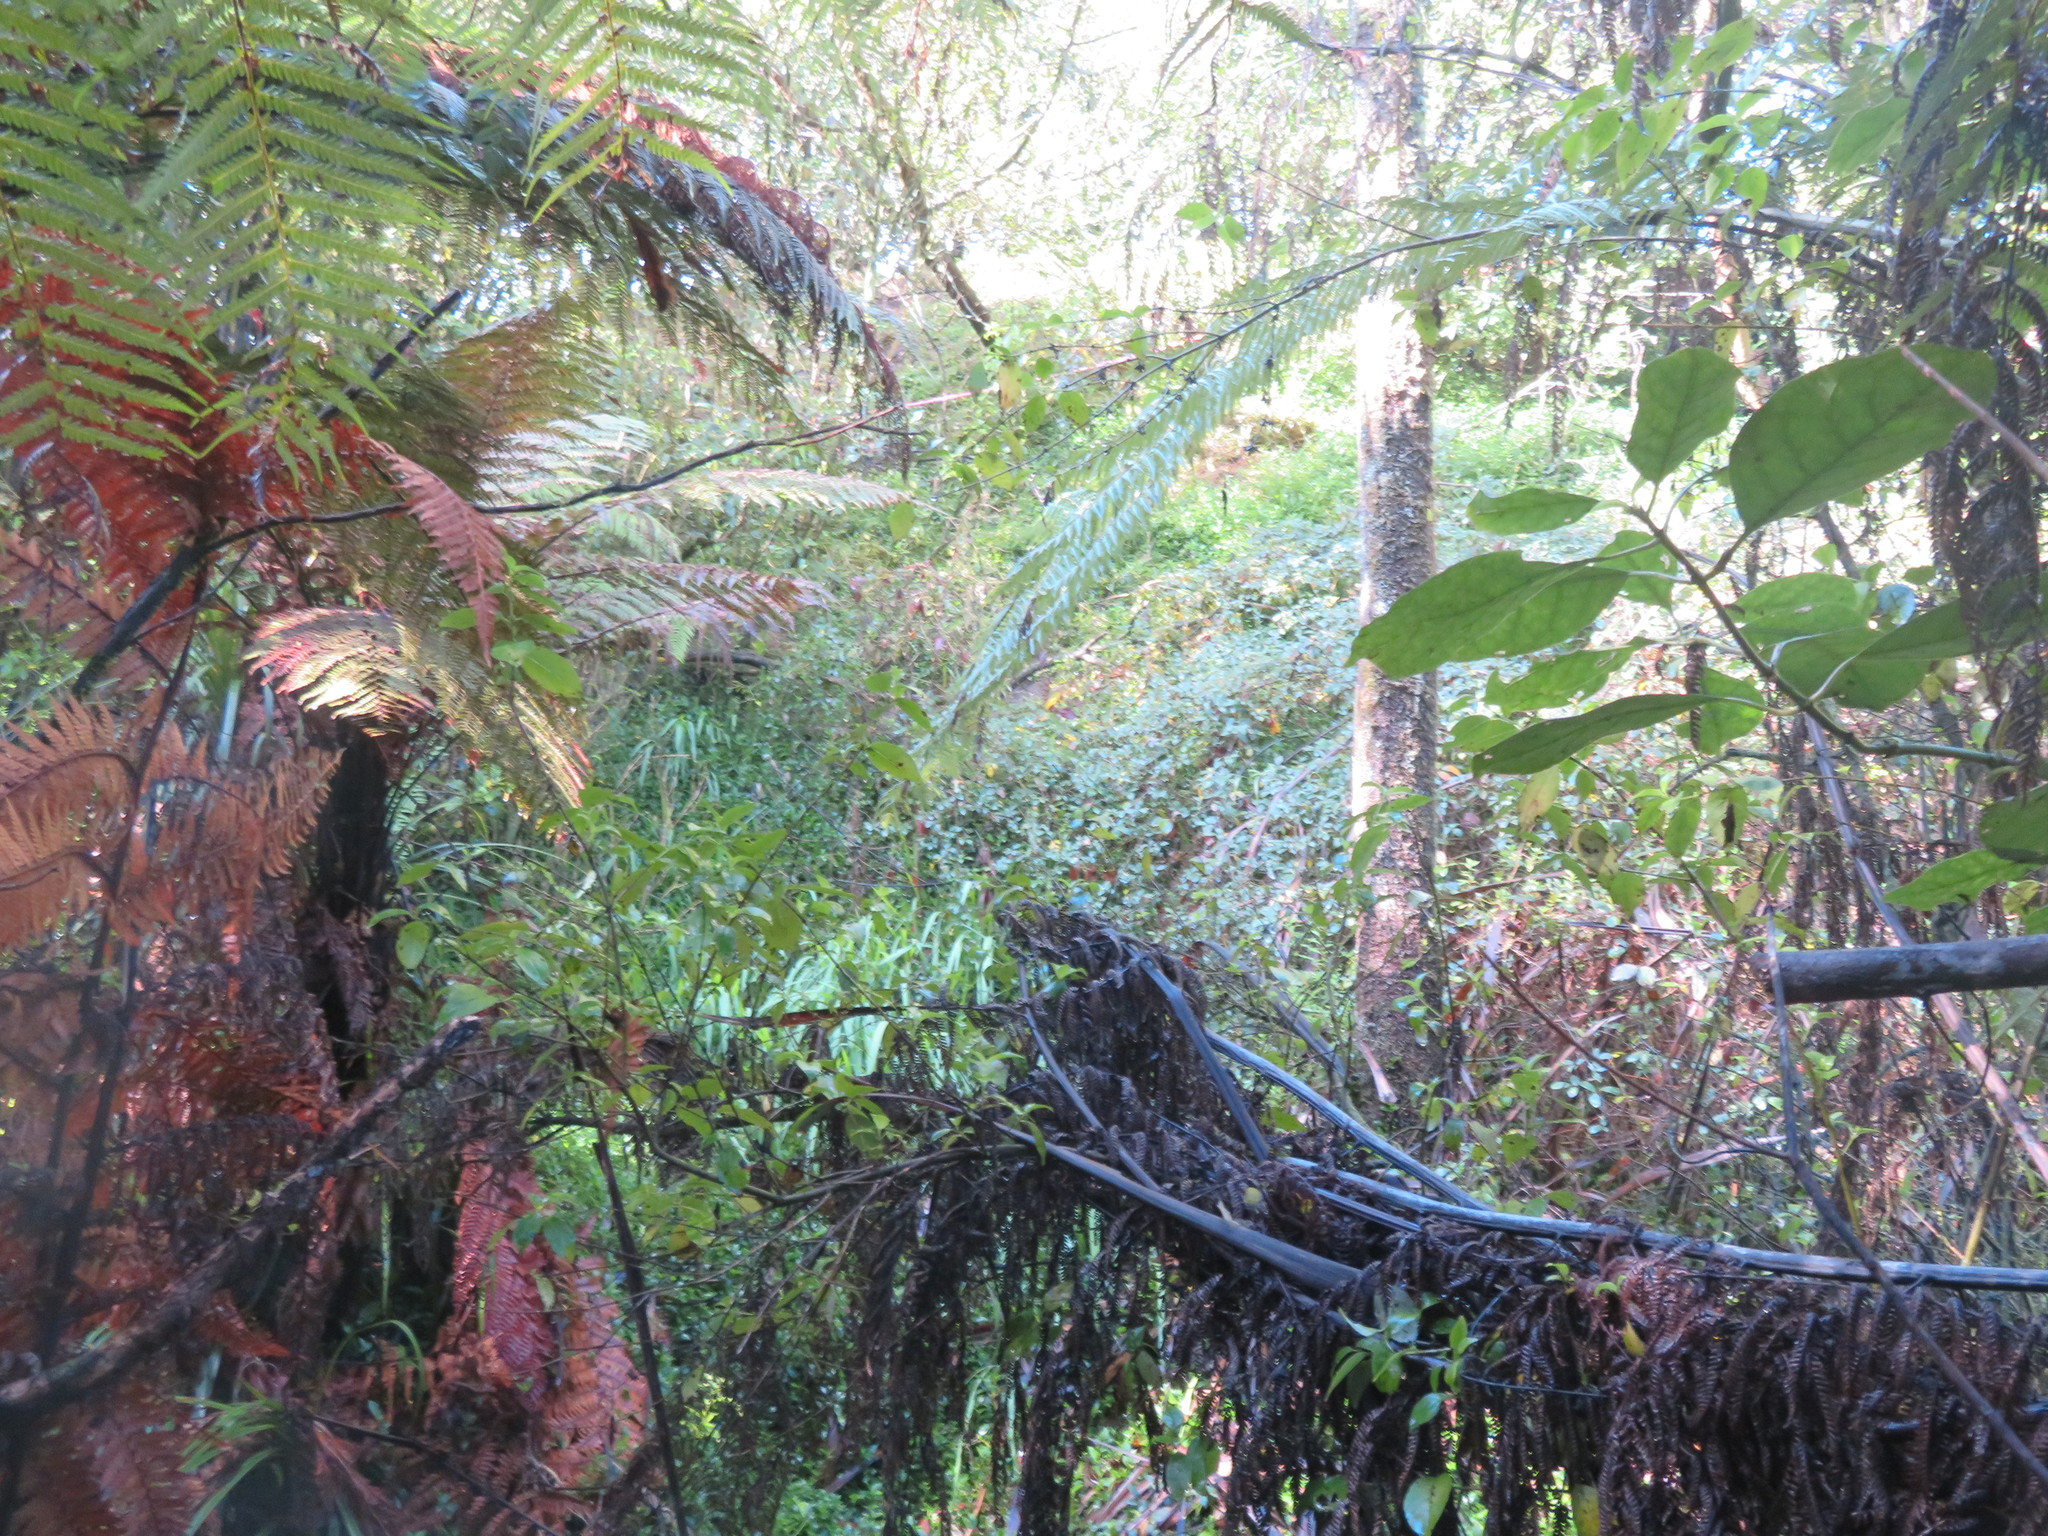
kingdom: Plantae
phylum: Tracheophyta
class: Polypodiopsida
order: Cyatheales
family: Dicksoniaceae
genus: Dicksonia
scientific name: Dicksonia squarrosa
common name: Hard treefern
